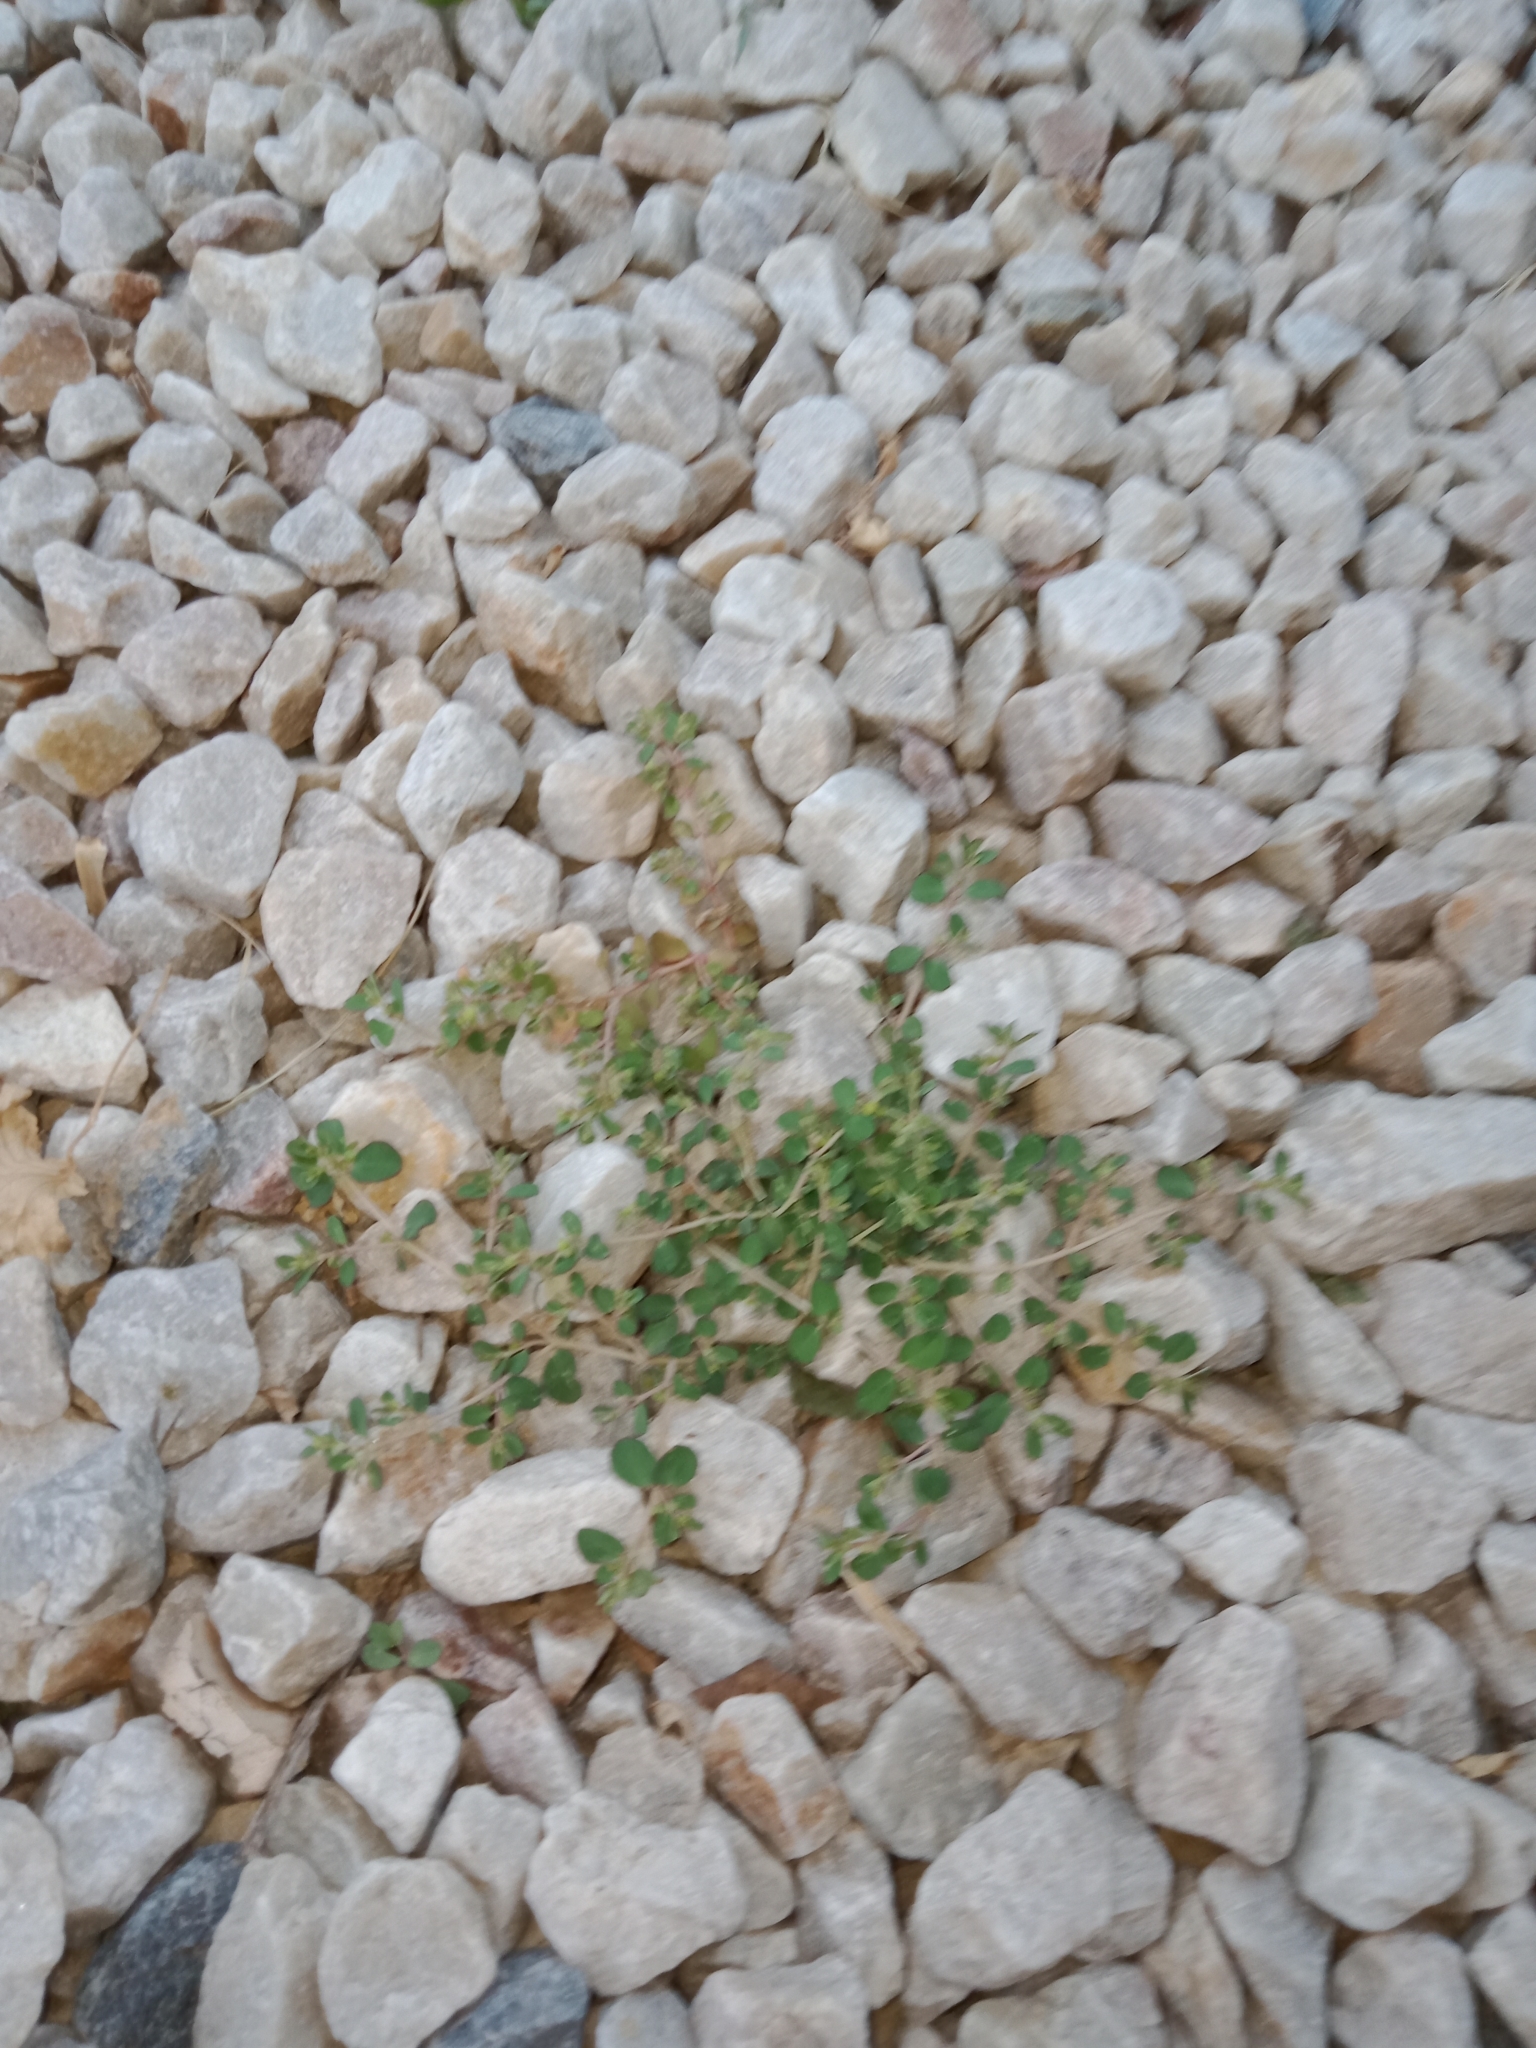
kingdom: Plantae
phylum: Tracheophyta
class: Magnoliopsida
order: Malpighiales
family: Euphorbiaceae
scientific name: Euphorbiaceae
